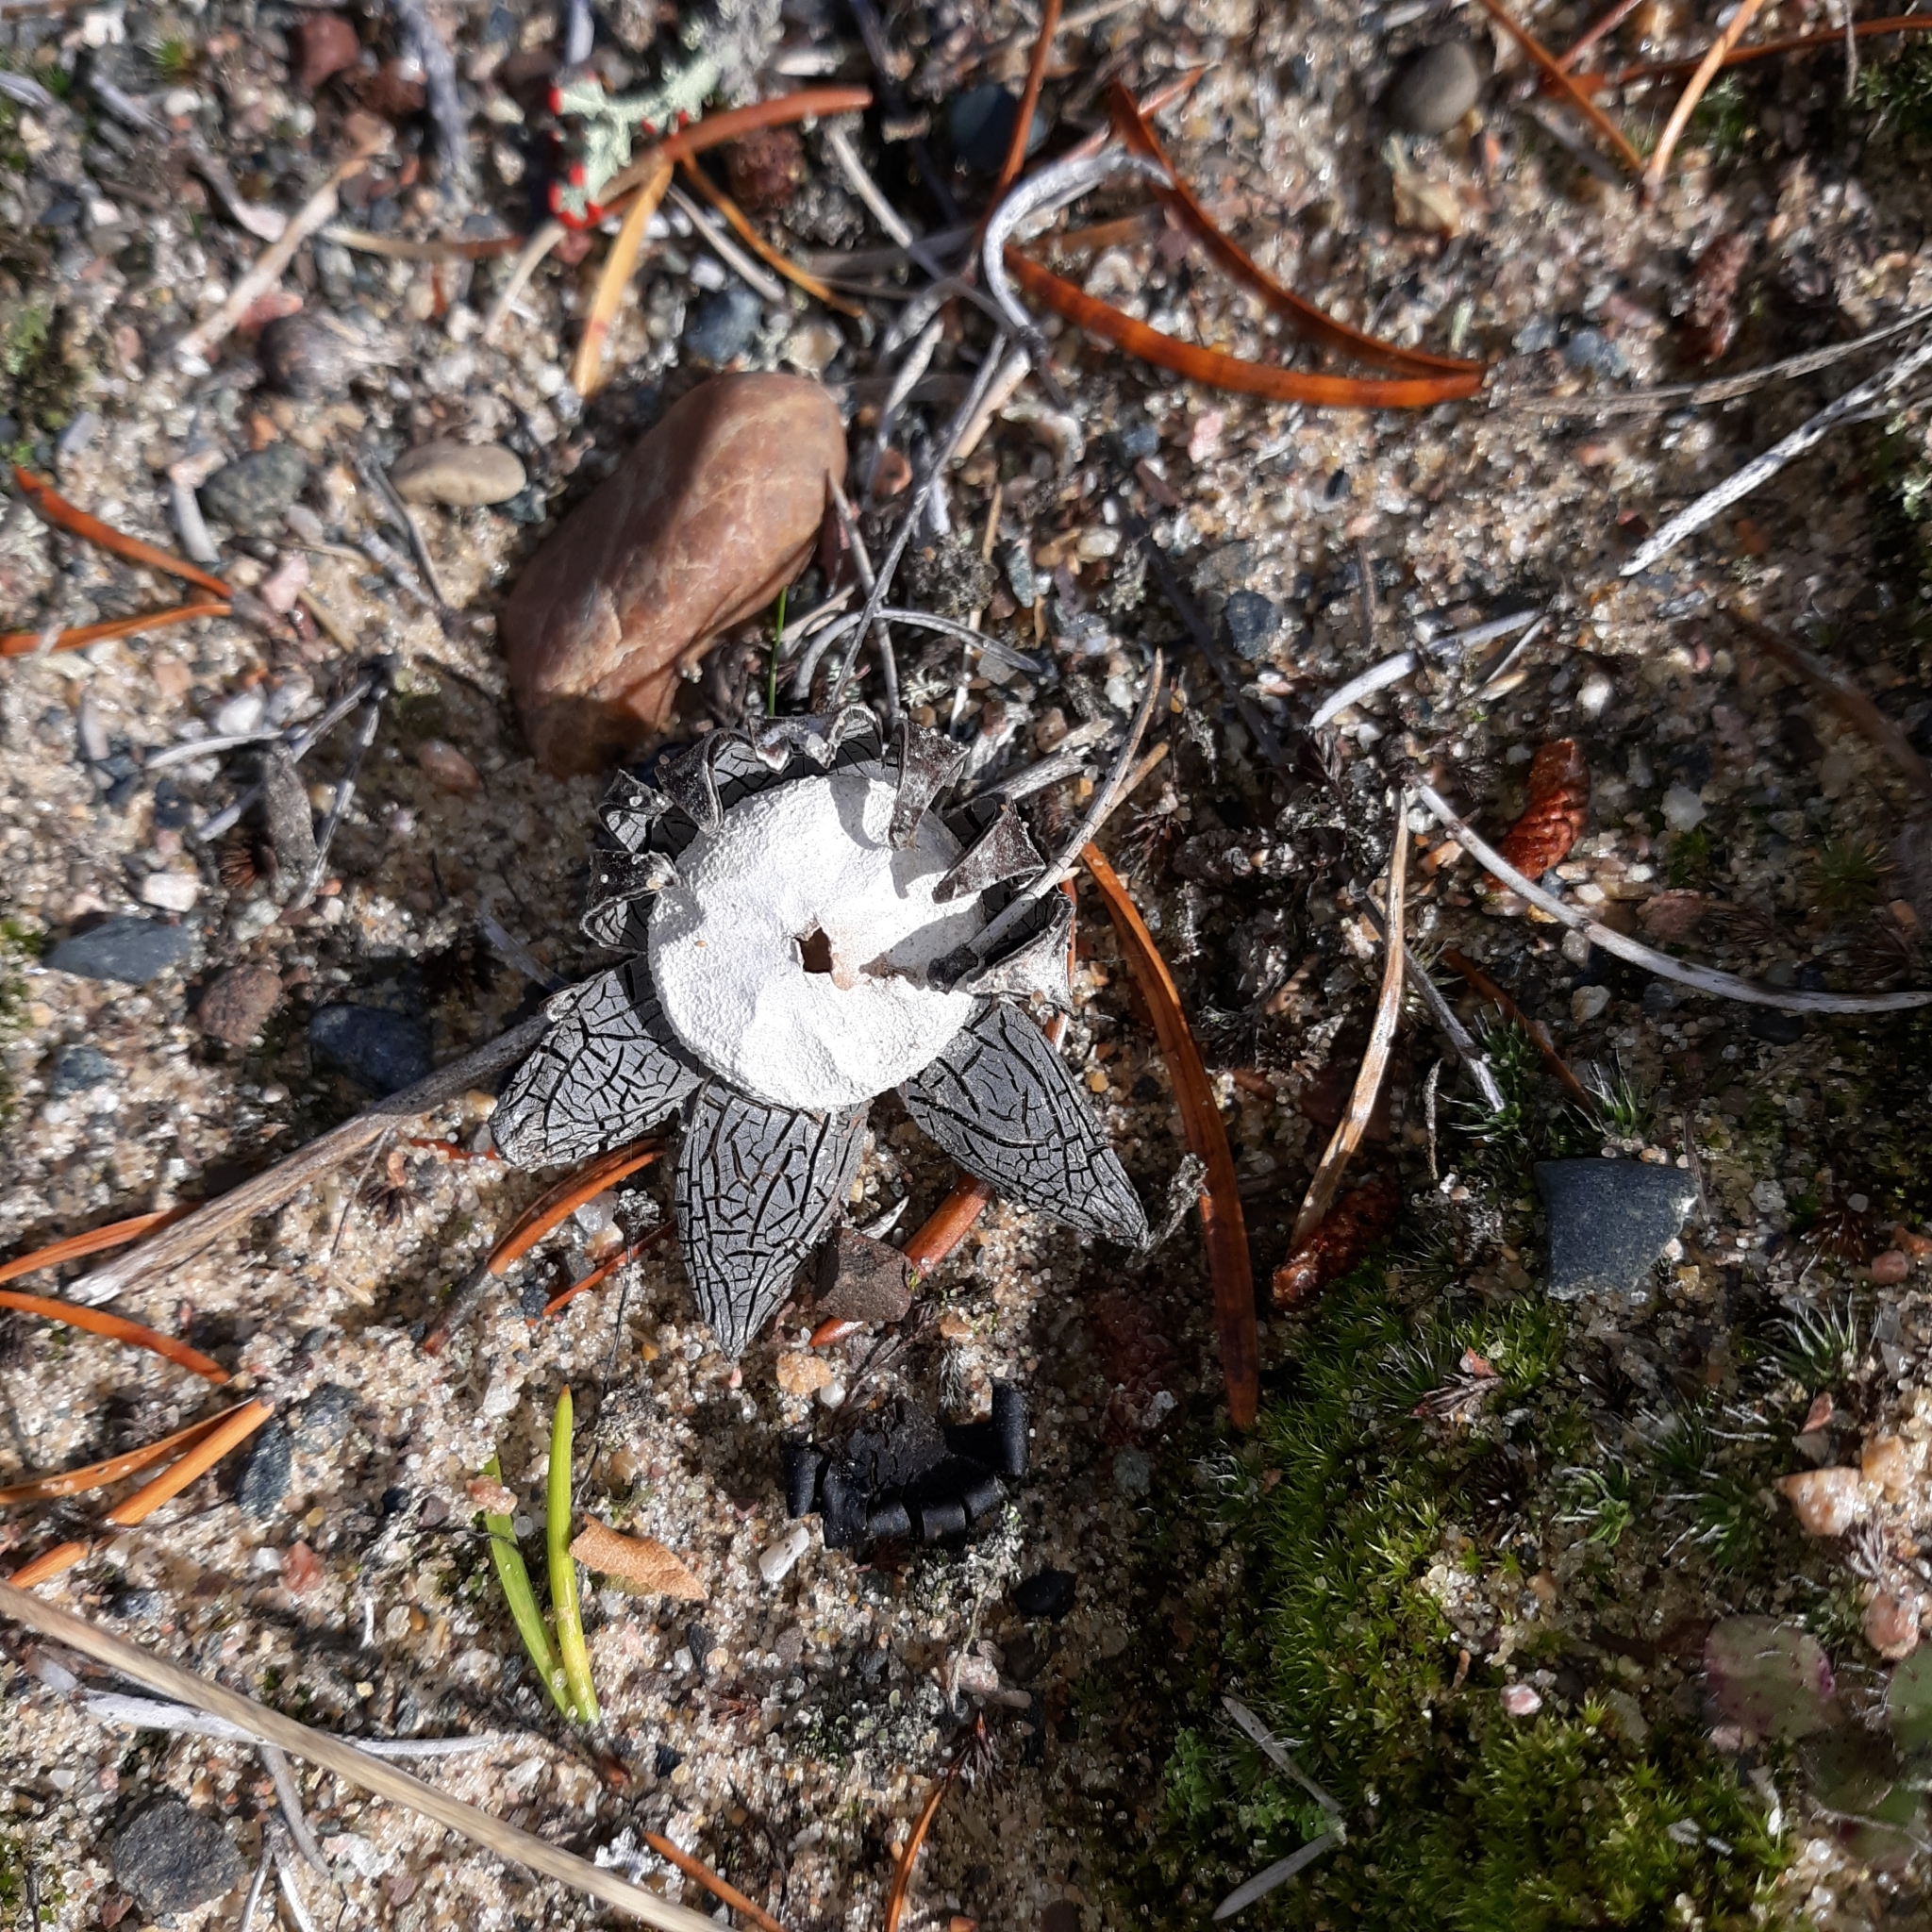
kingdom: Fungi
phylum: Basidiomycota
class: Agaricomycetes
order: Boletales
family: Diplocystidiaceae
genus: Astraeus
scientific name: Astraeus hygrometricus
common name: Barometer earthstar
